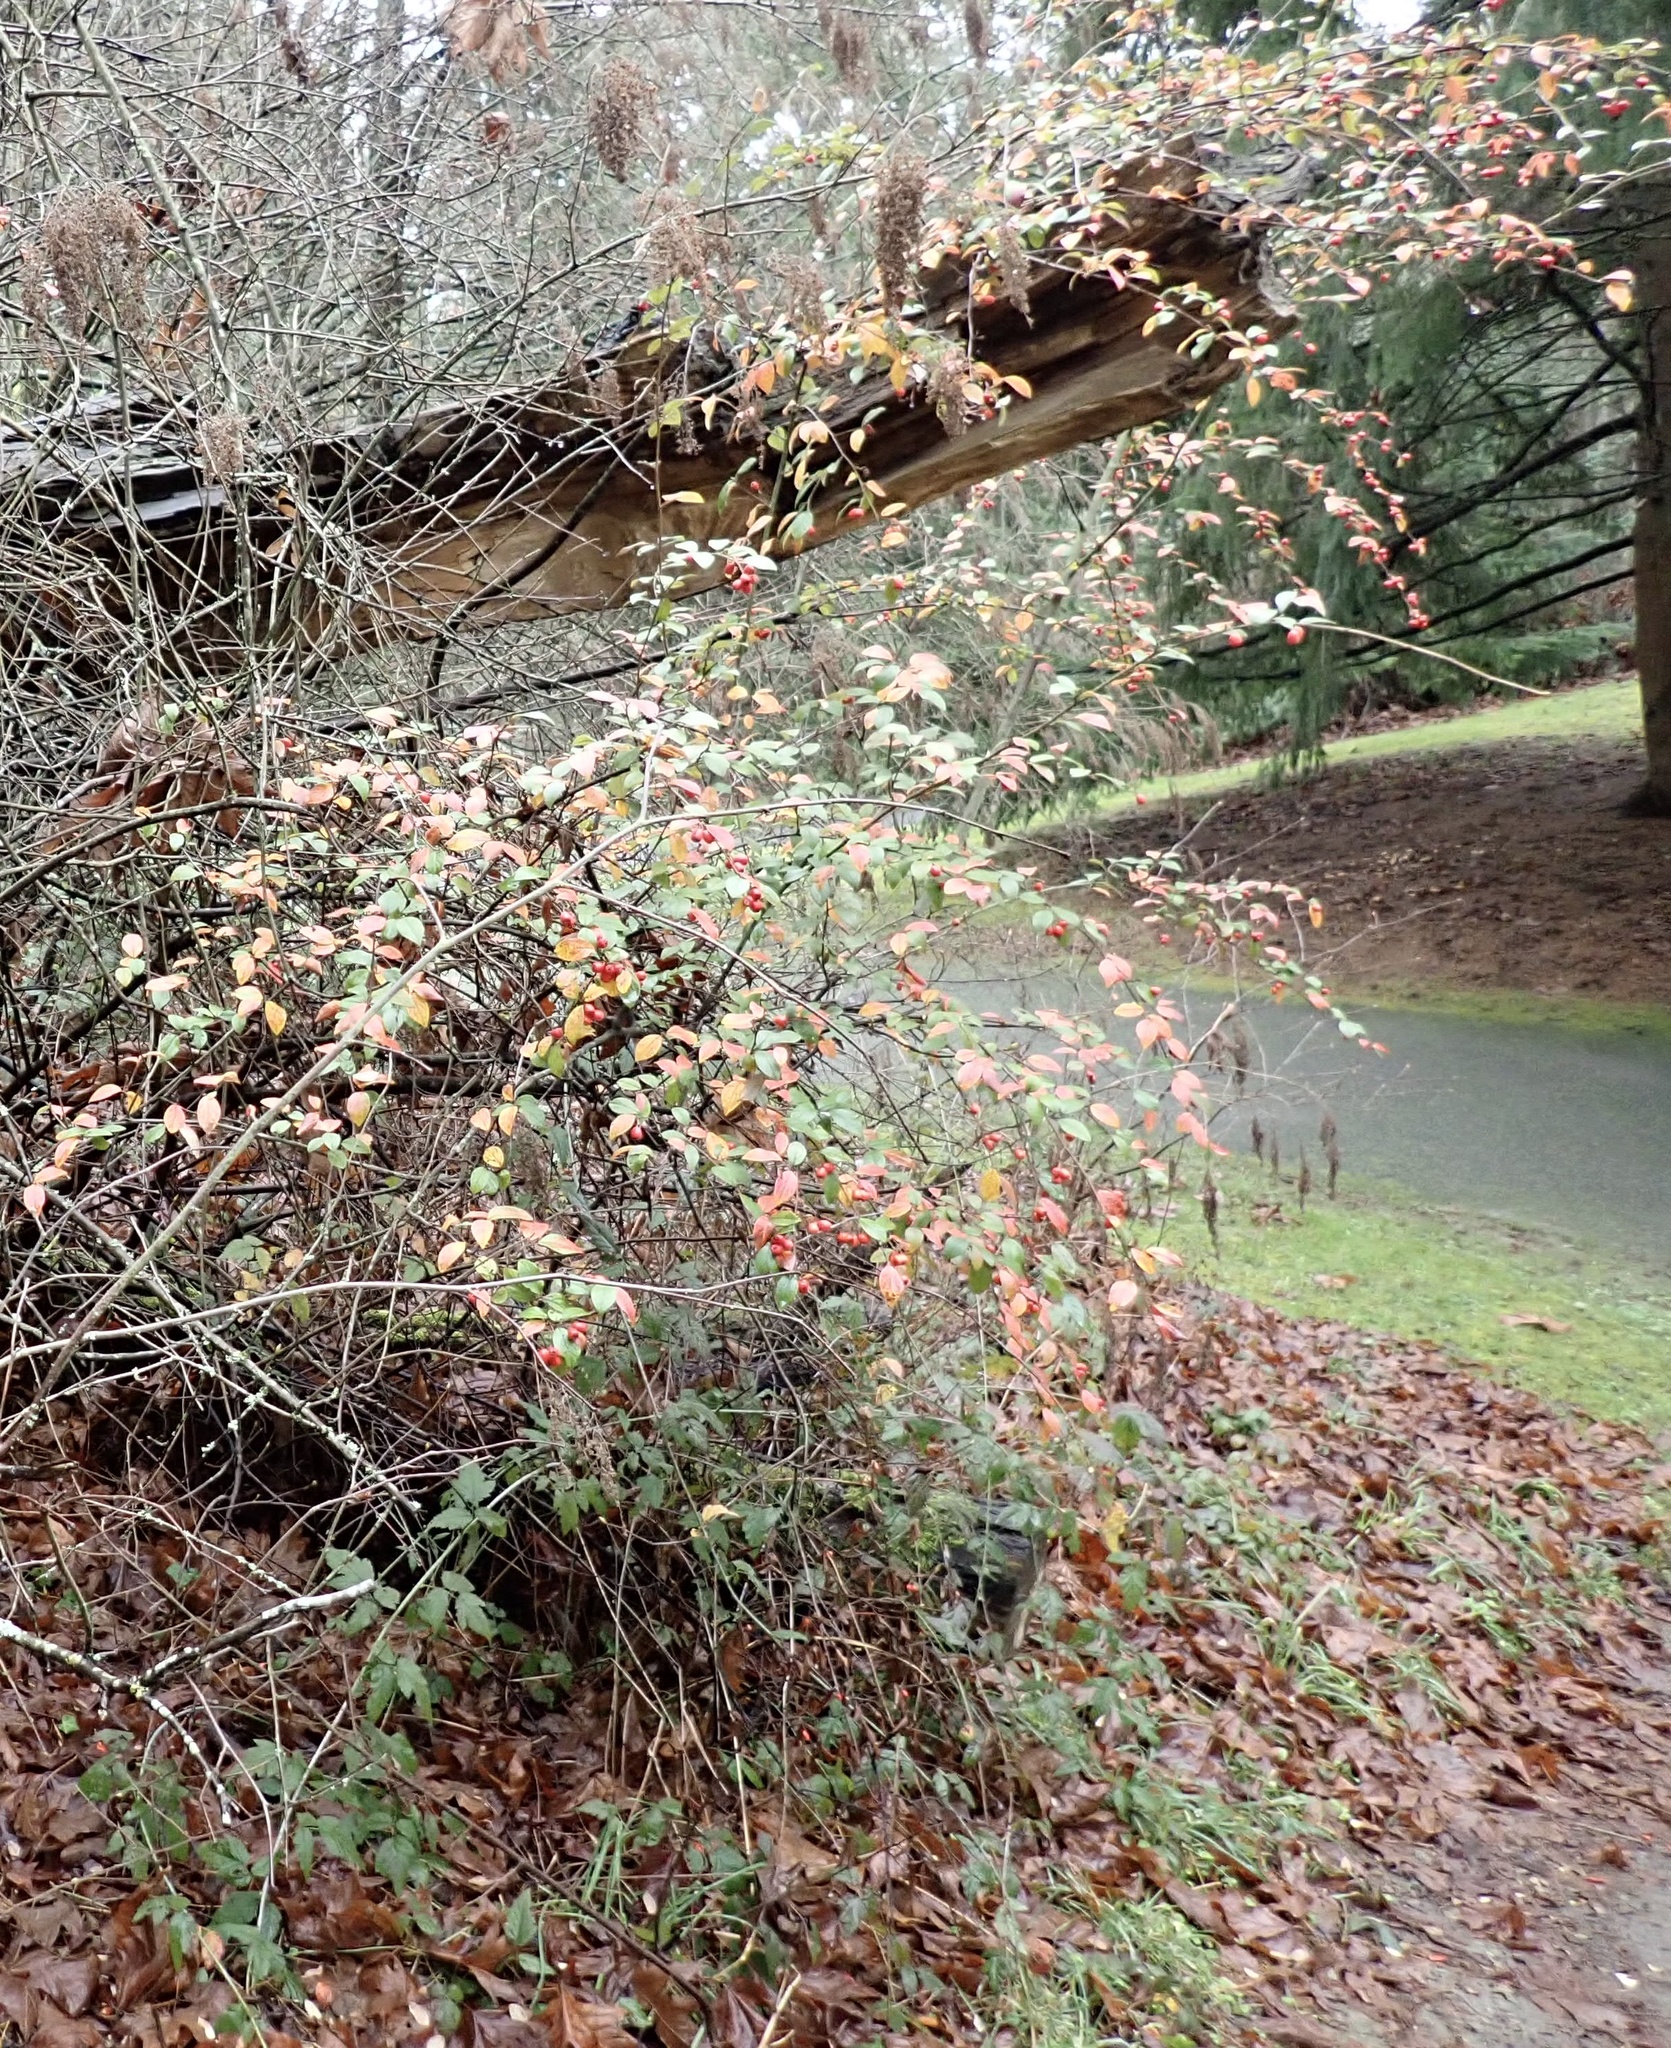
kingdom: Plantae
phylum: Tracheophyta
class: Magnoliopsida
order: Rosales
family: Rosaceae
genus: Cotoneaster
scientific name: Cotoneaster franchetii
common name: Franchet's cotoneaster
